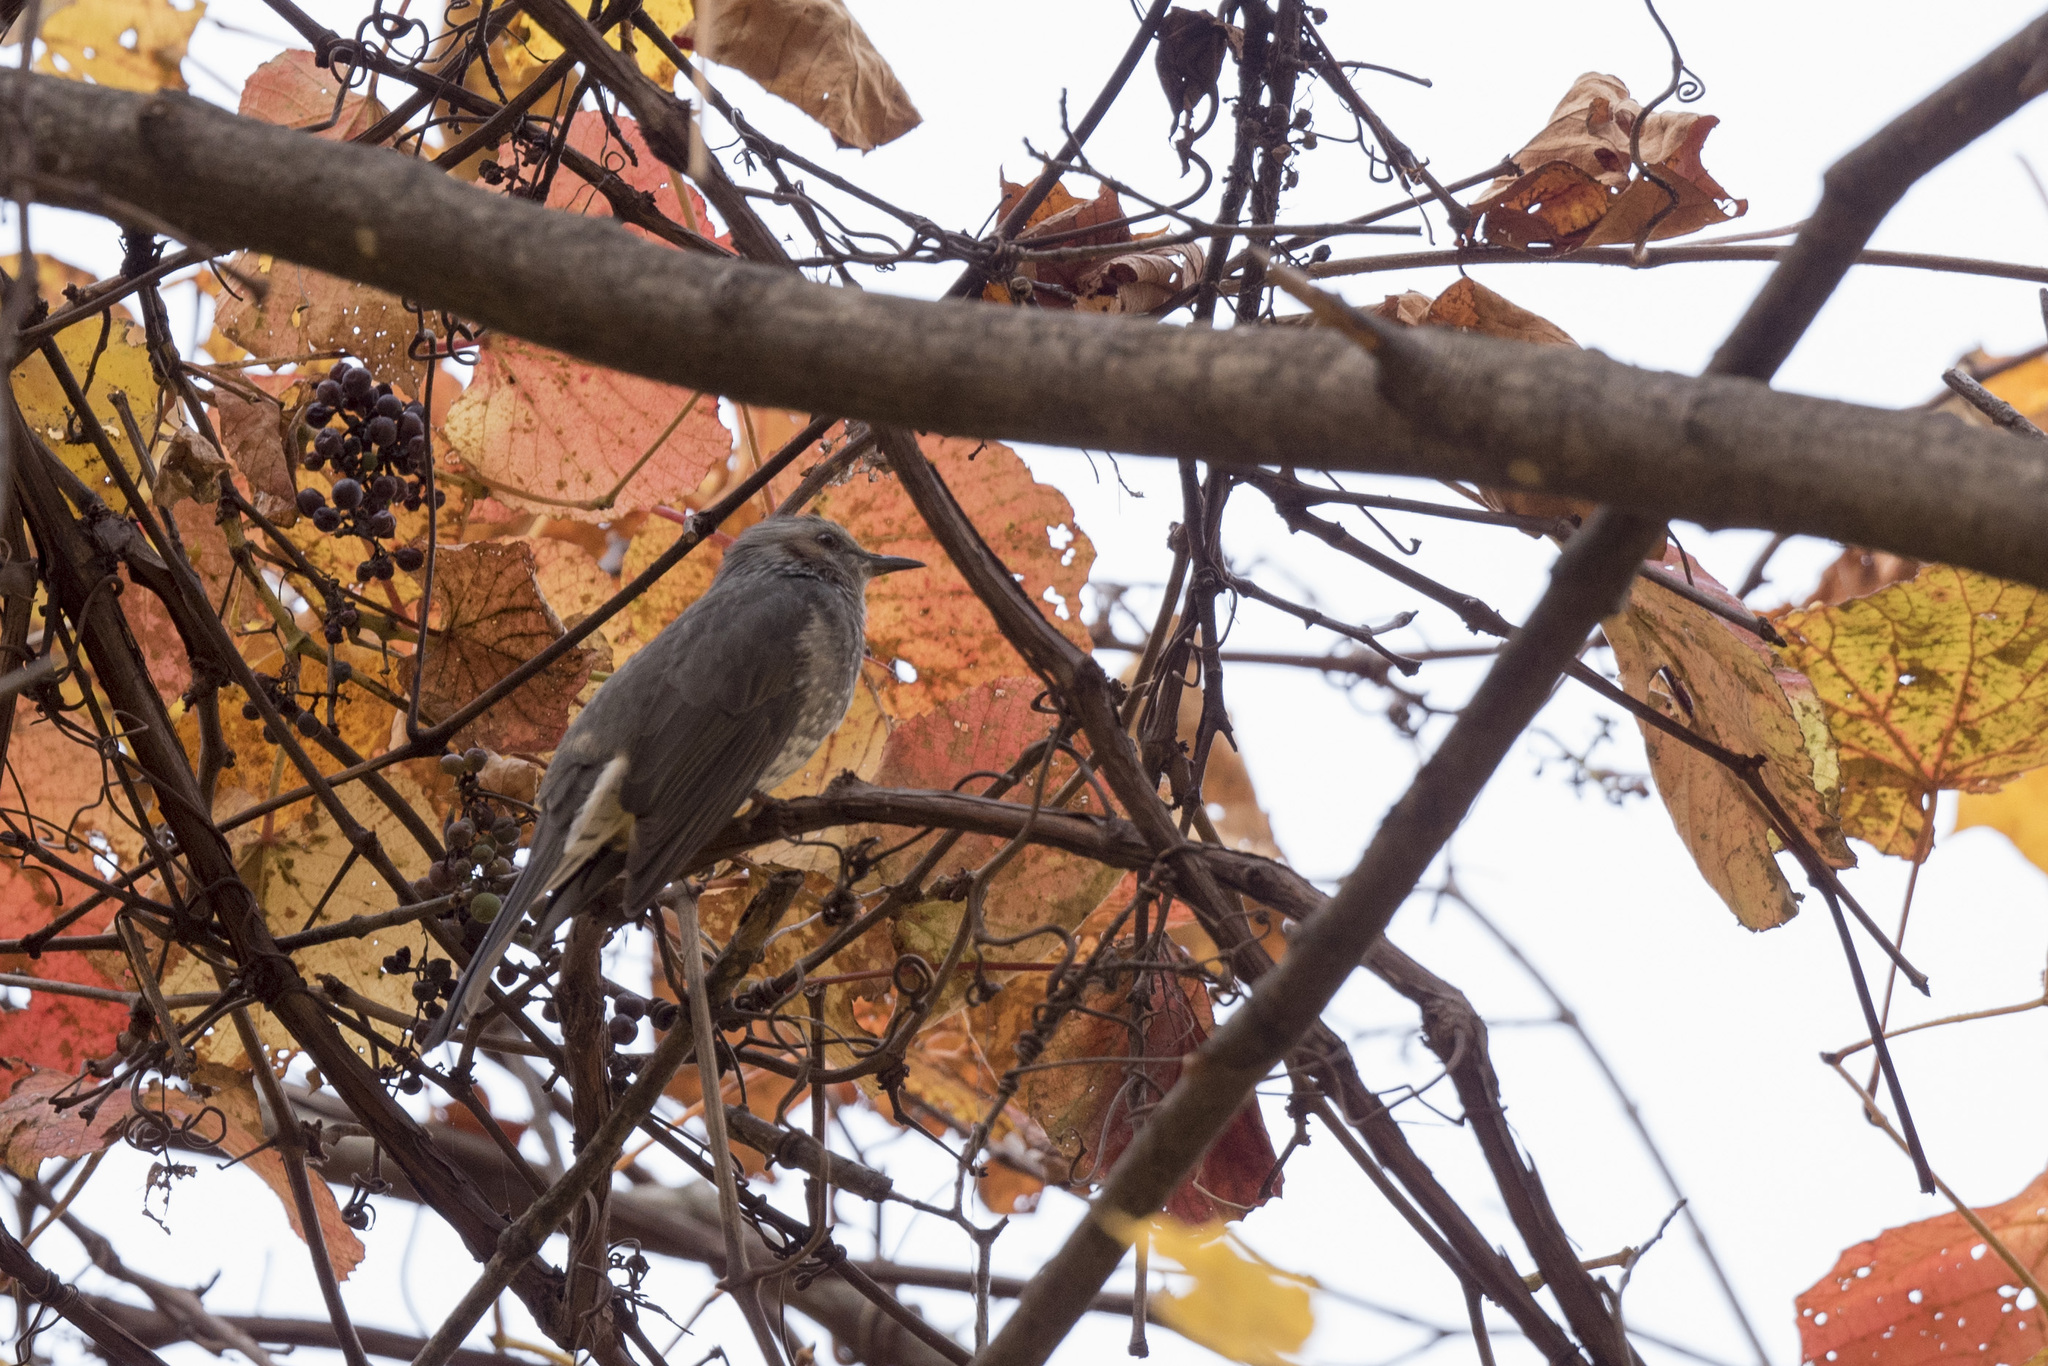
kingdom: Animalia
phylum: Chordata
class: Aves
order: Passeriformes
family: Pycnonotidae
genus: Hypsipetes
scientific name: Hypsipetes amaurotis
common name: Brown-eared bulbul
